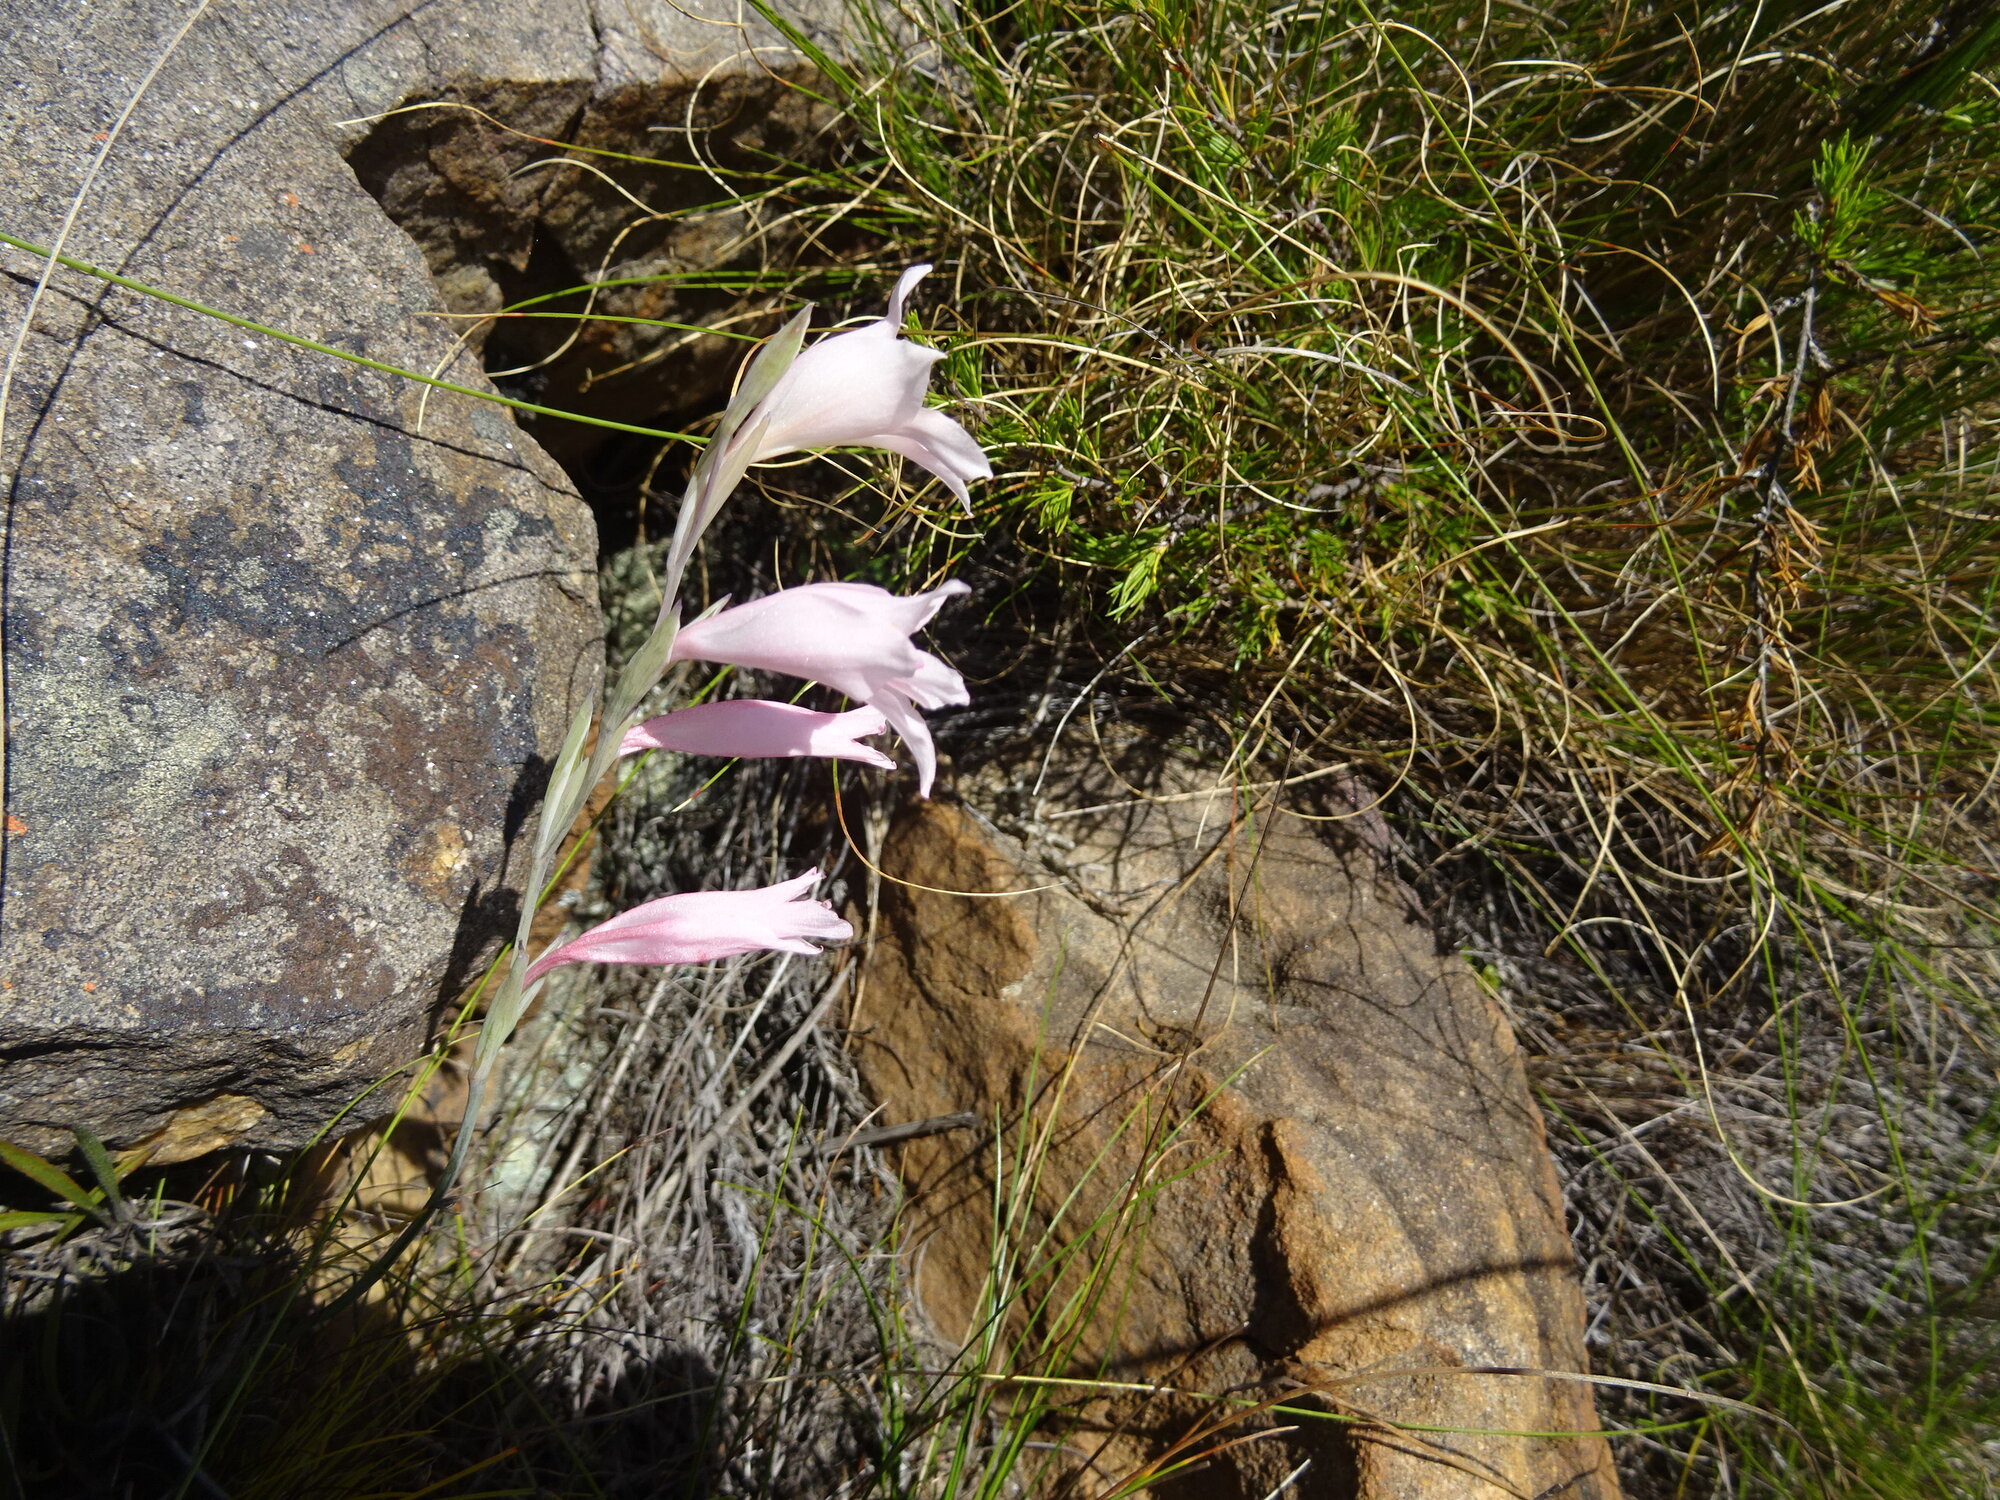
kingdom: Plantae
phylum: Tracheophyta
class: Liliopsida
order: Asparagales
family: Iridaceae
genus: Gladiolus
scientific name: Gladiolus brevifolius
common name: March pypie
